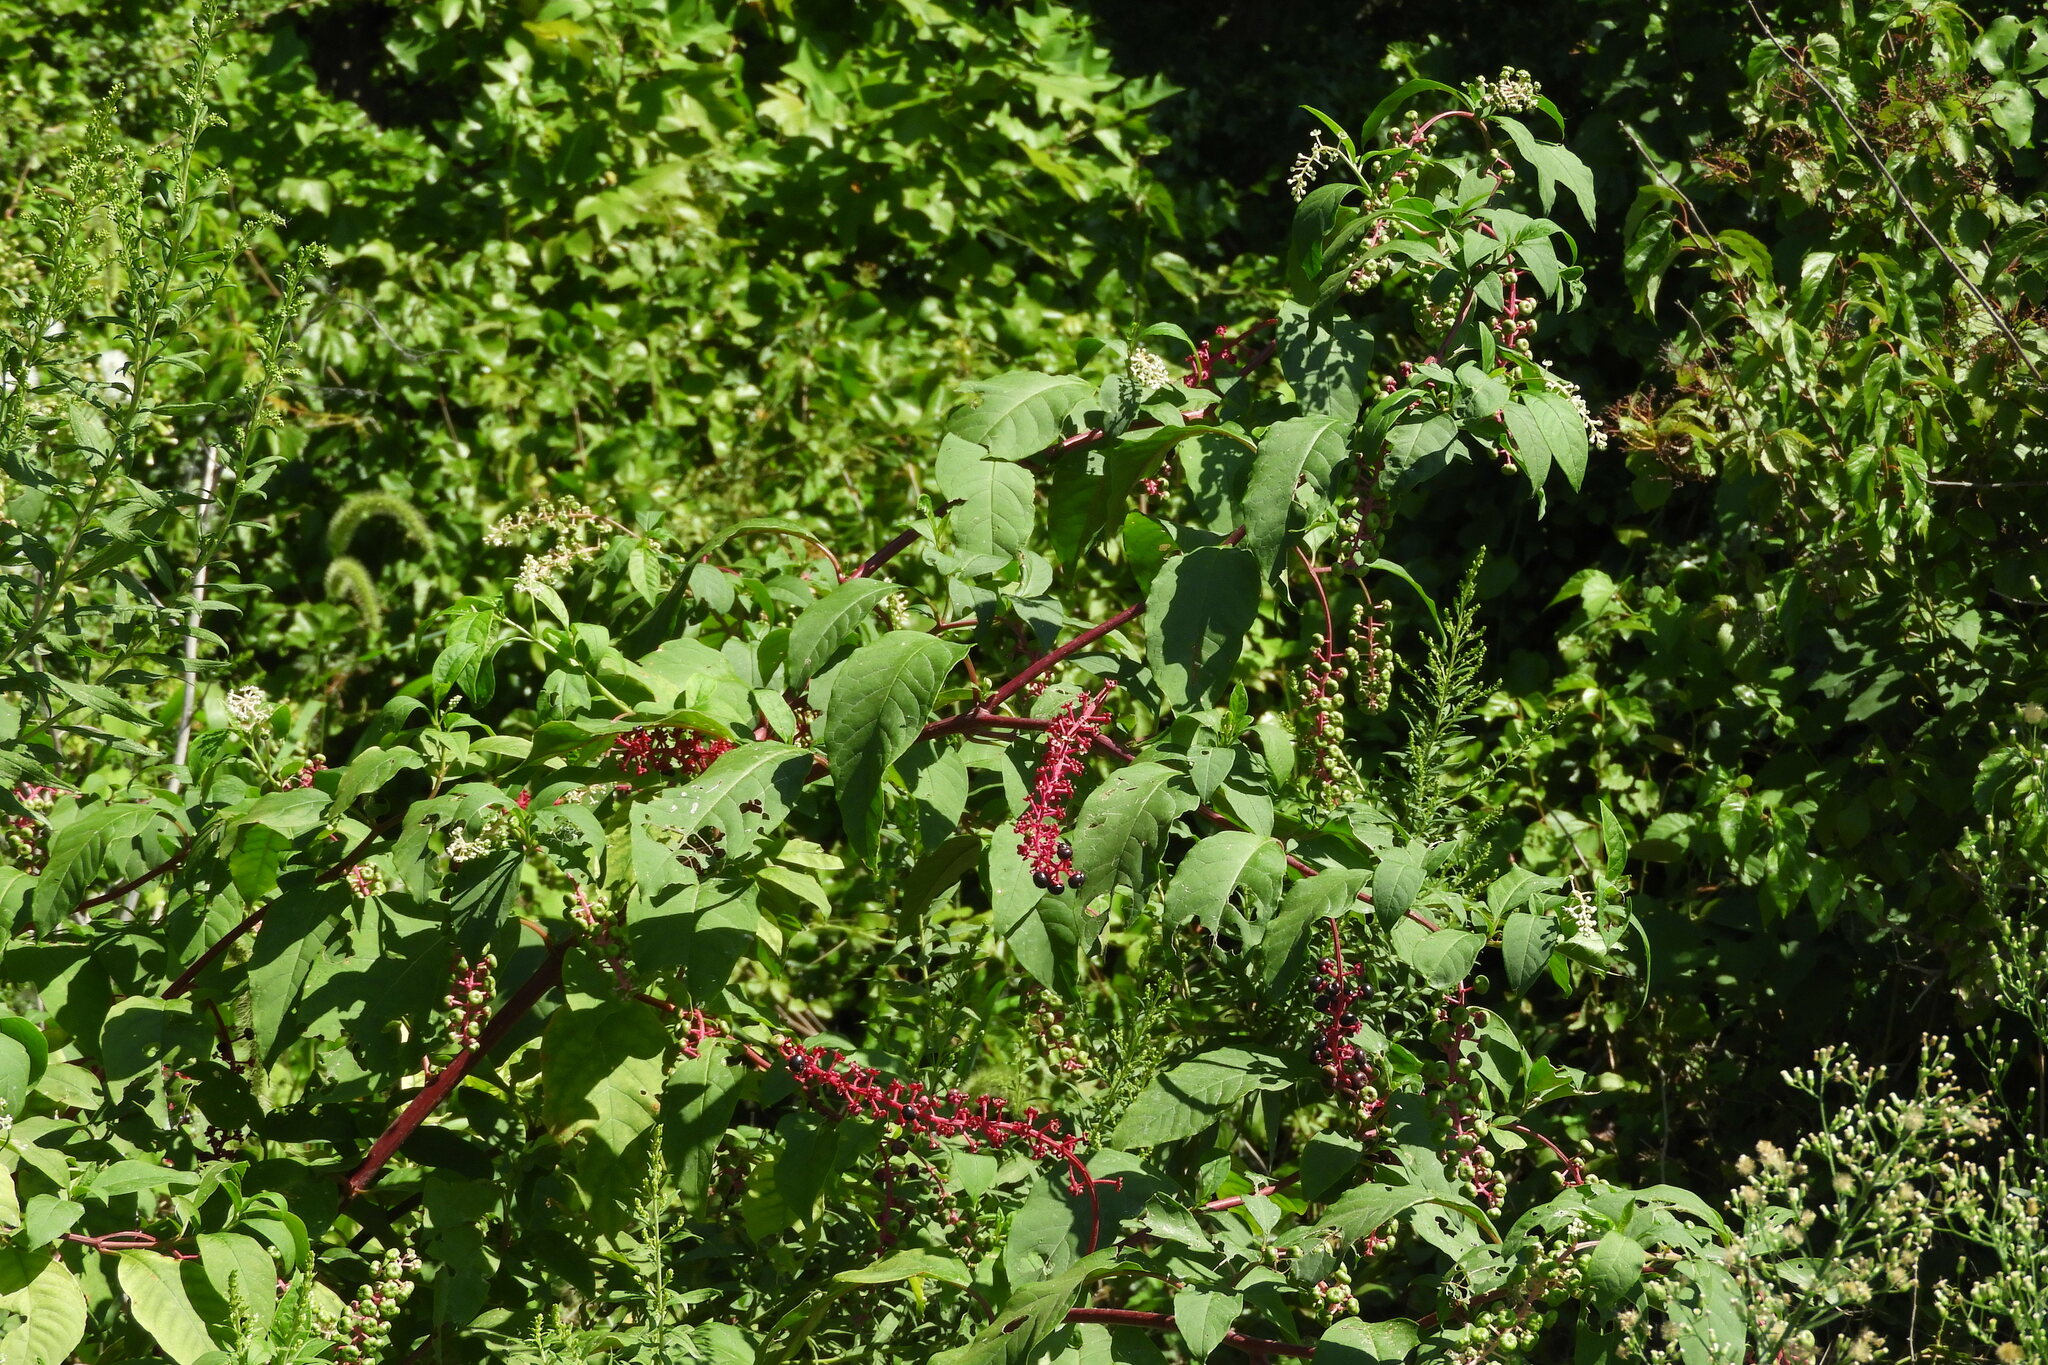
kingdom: Plantae
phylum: Tracheophyta
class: Magnoliopsida
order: Caryophyllales
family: Phytolaccaceae
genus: Phytolacca
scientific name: Phytolacca americana
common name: American pokeweed
